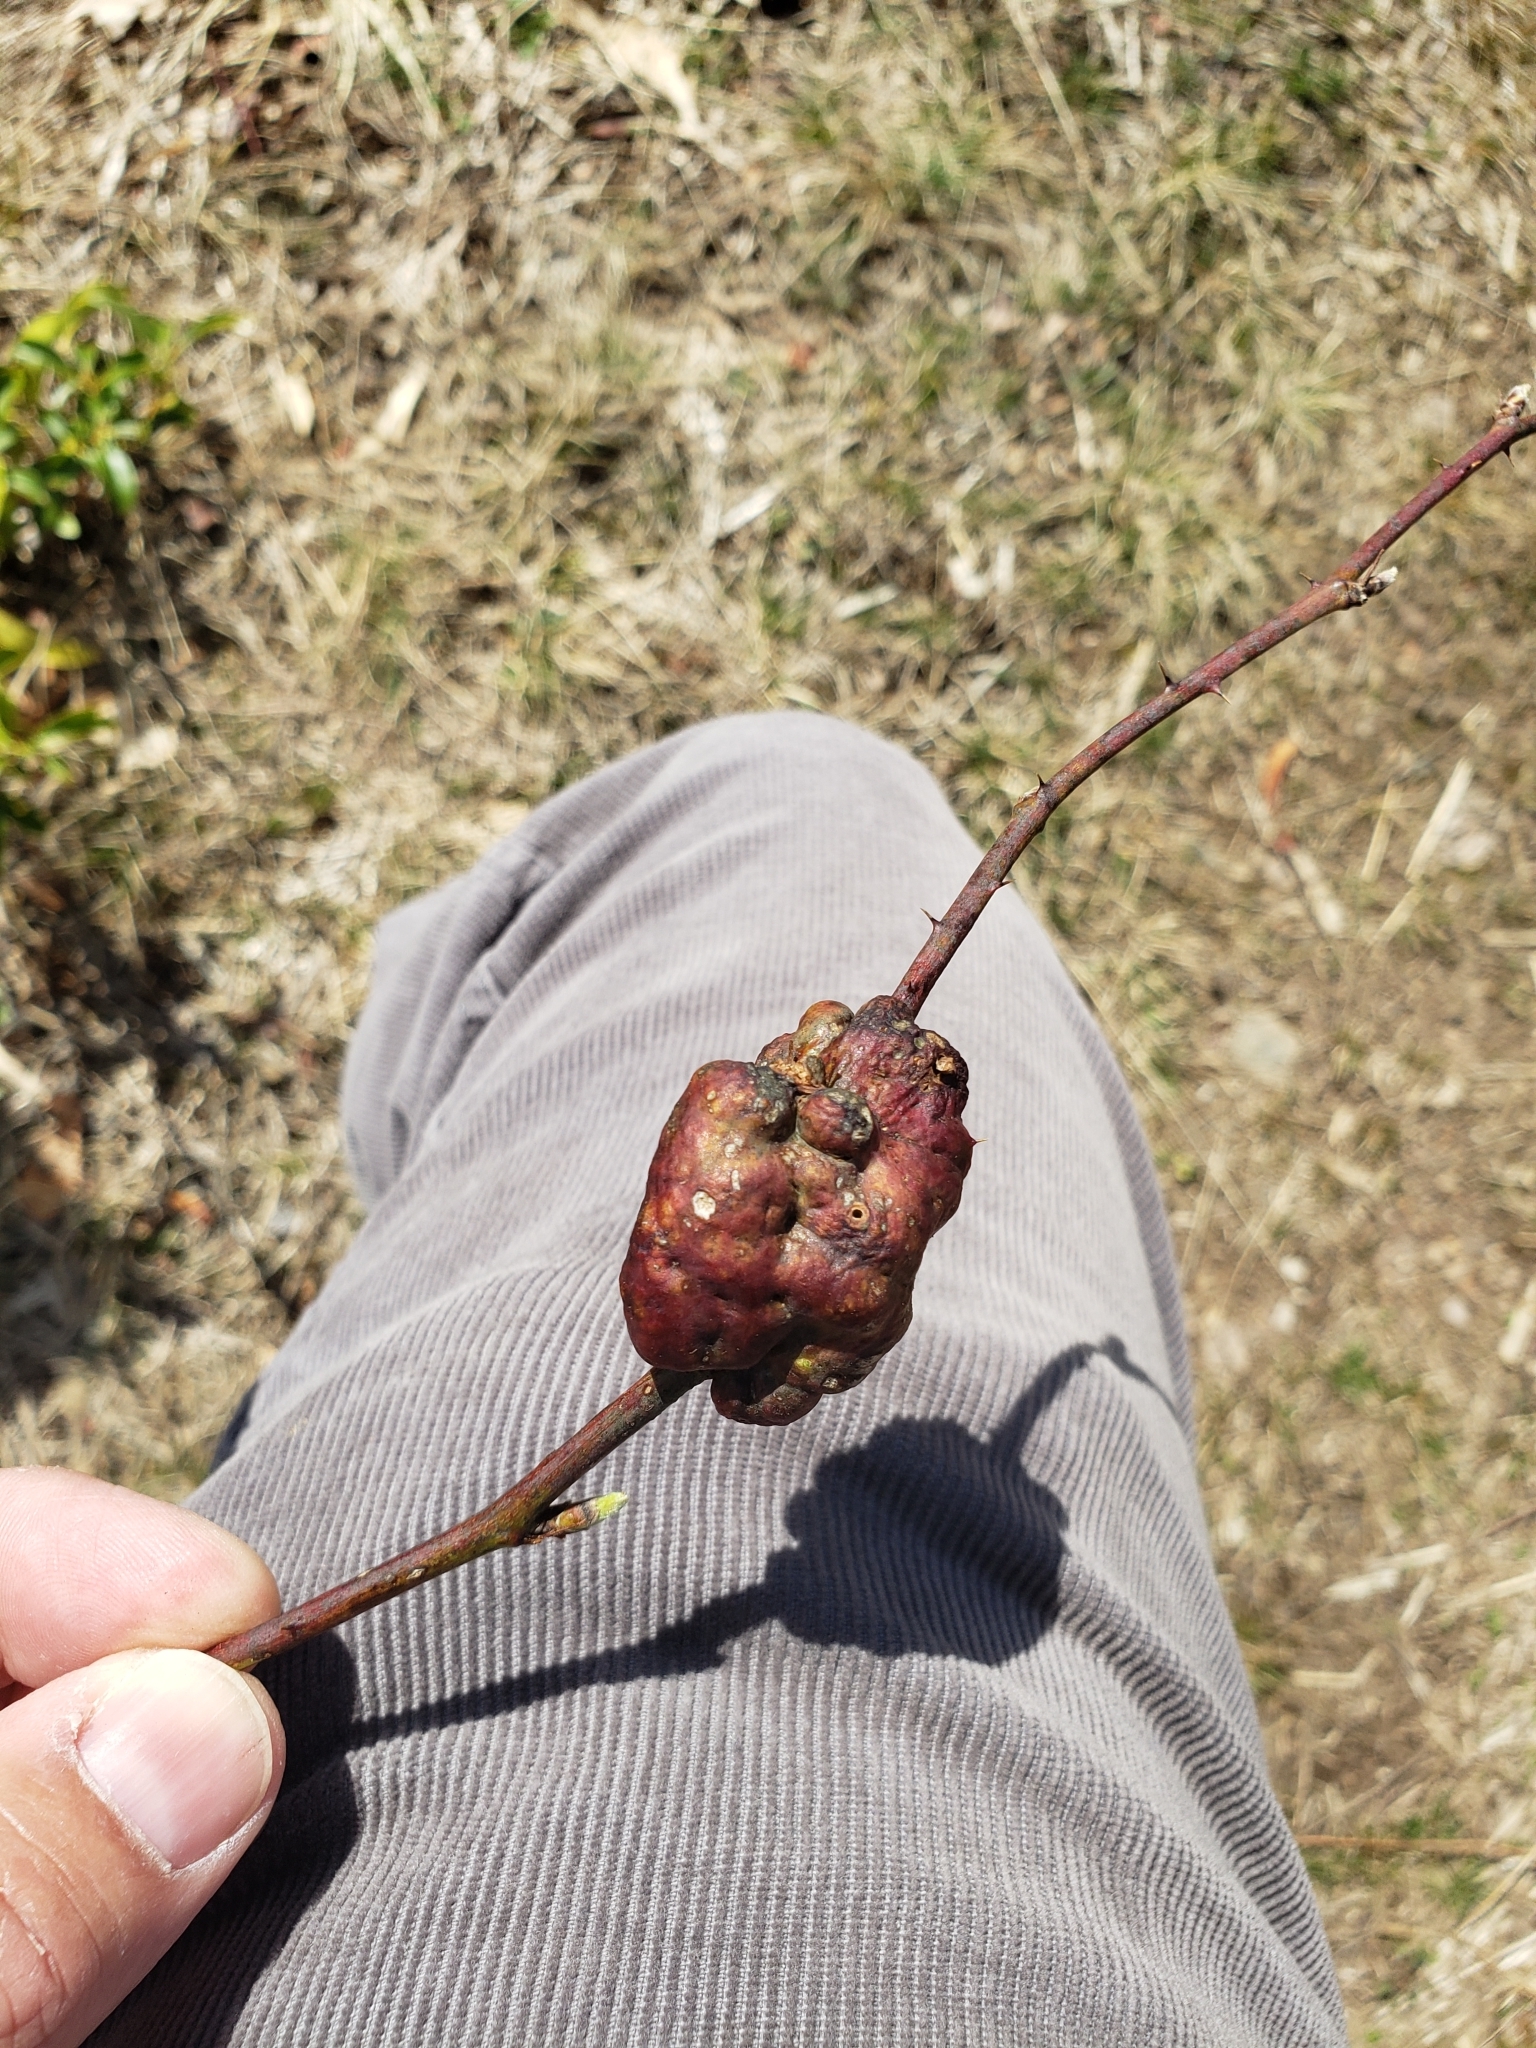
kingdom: Animalia
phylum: Arthropoda
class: Insecta
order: Hymenoptera
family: Cynipidae
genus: Diastrophus
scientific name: Diastrophus
